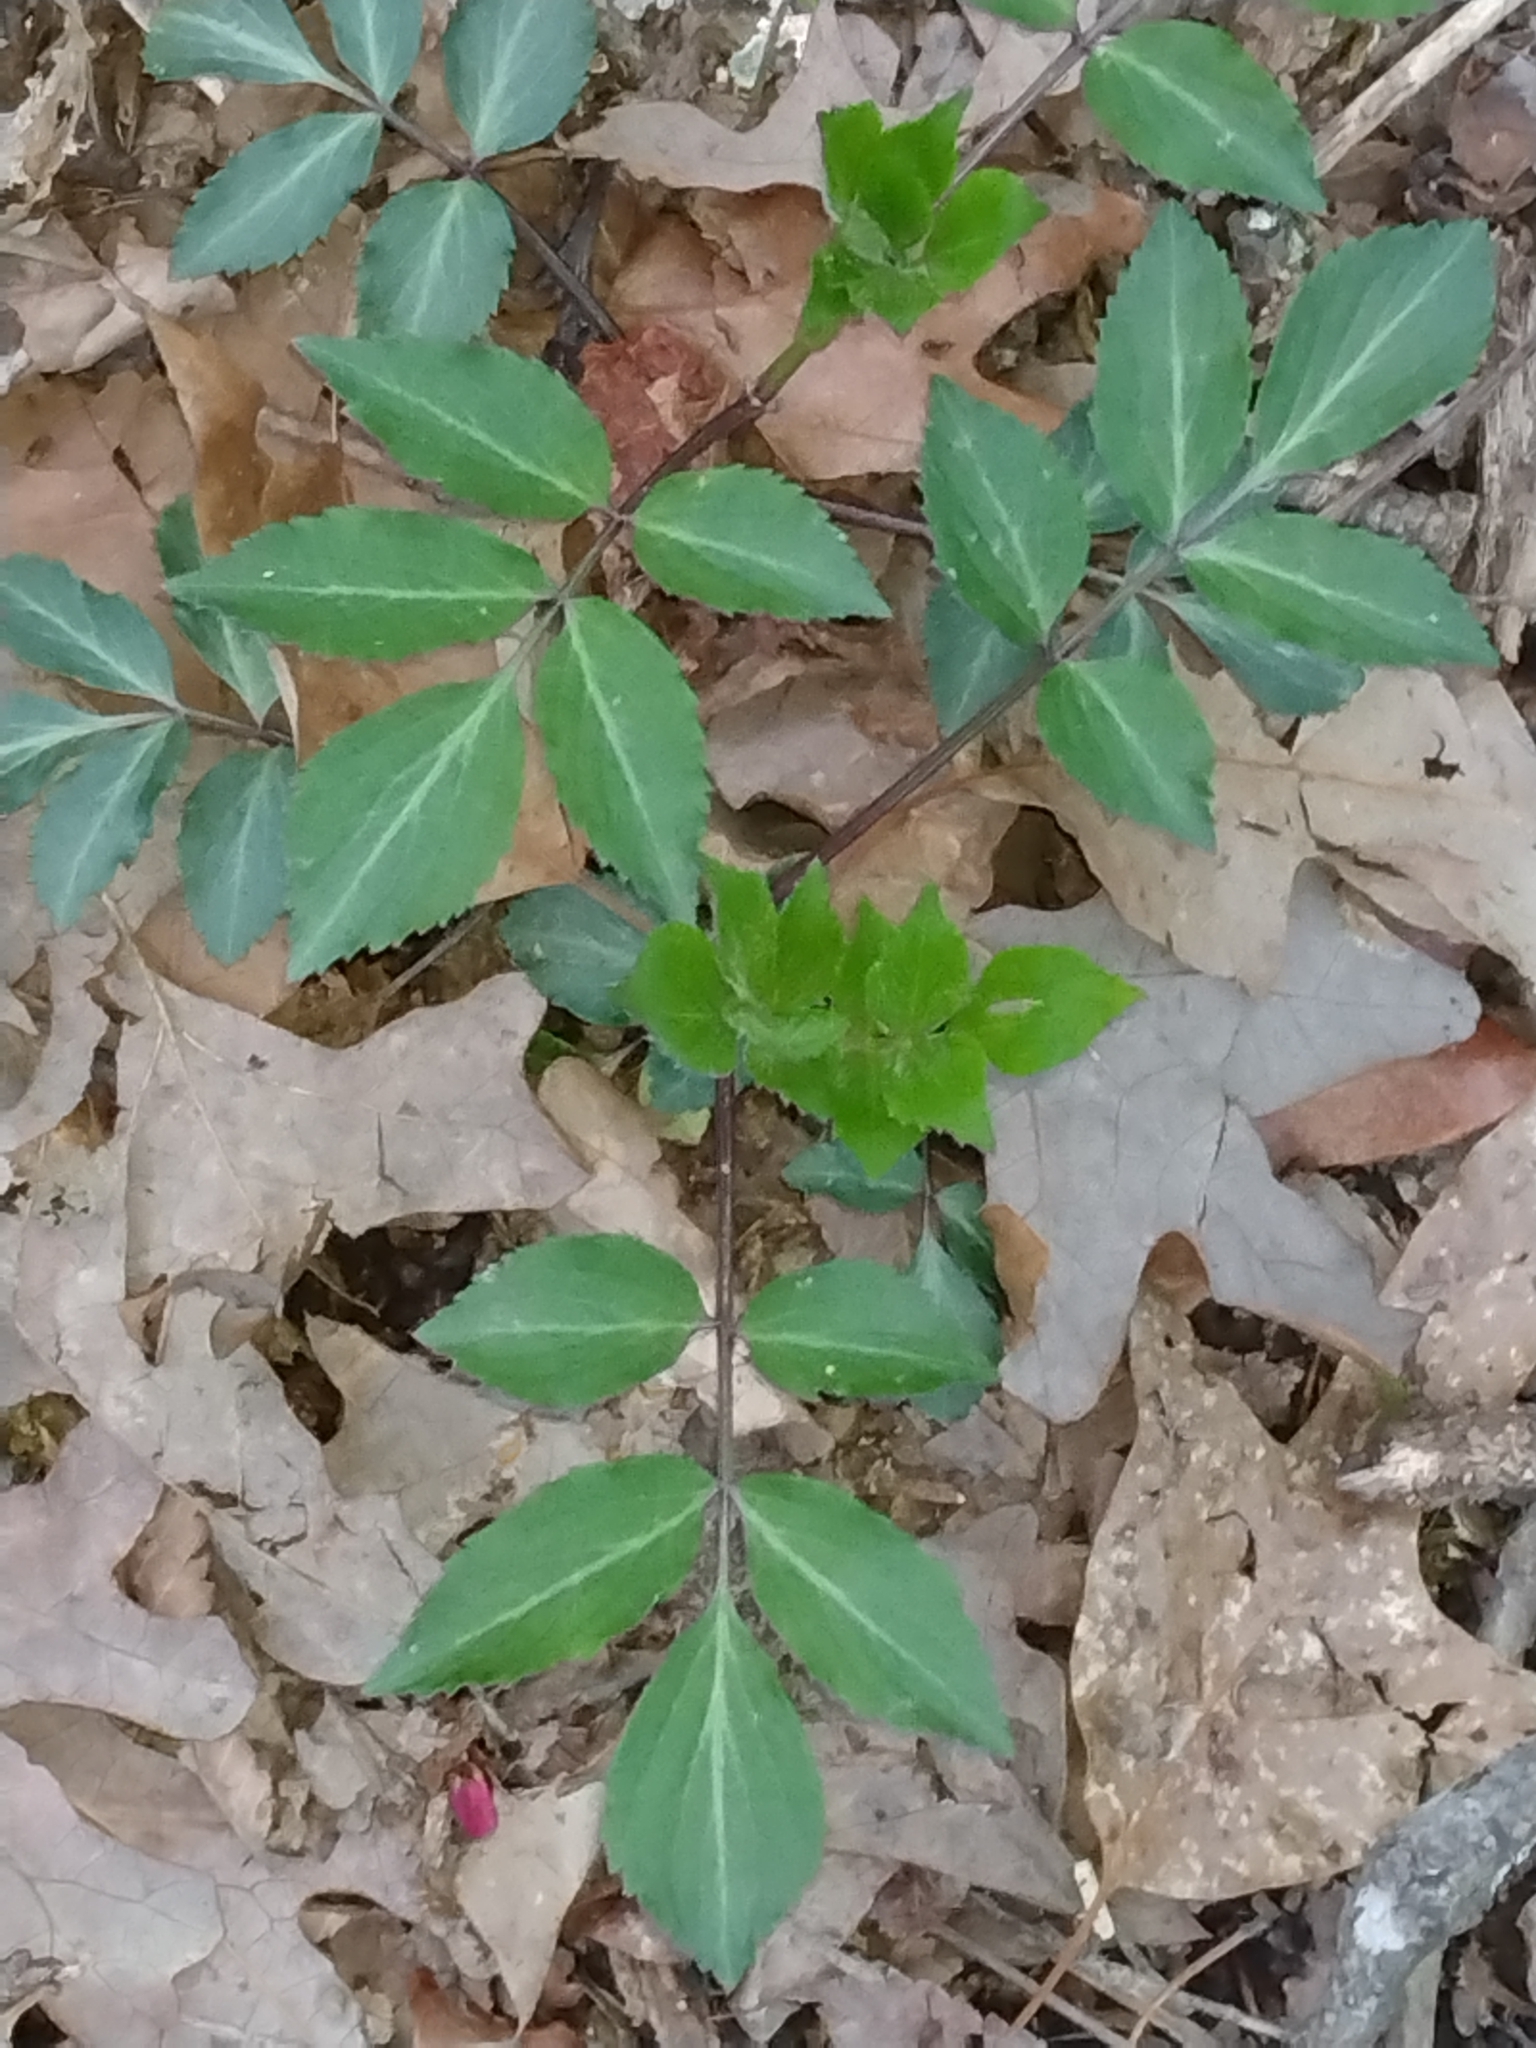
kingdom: Plantae
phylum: Tracheophyta
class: Magnoliopsida
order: Dipsacales
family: Viburnaceae
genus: Sambucus
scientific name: Sambucus canadensis
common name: American elder
